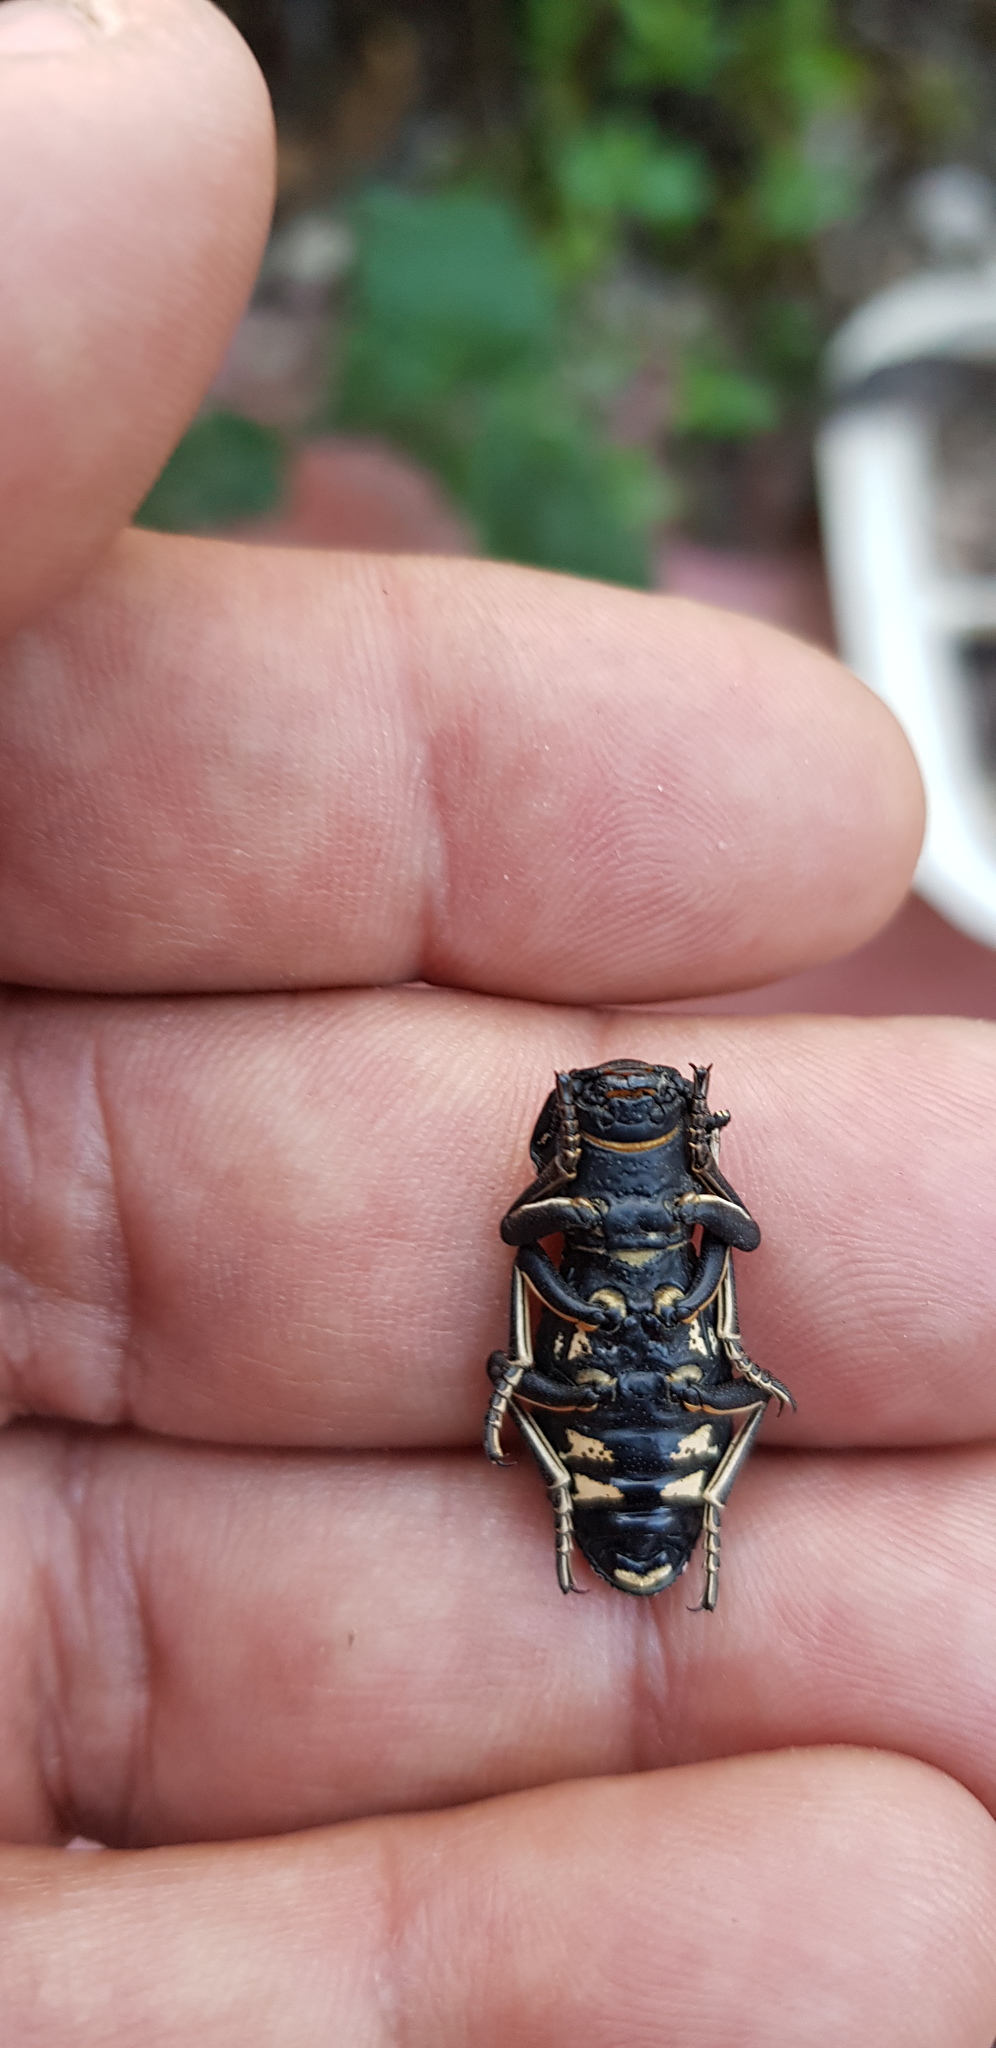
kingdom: Animalia
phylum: Arthropoda
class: Insecta
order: Coleoptera
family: Zopheridae
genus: Zopherus
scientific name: Zopherus nodulosus
